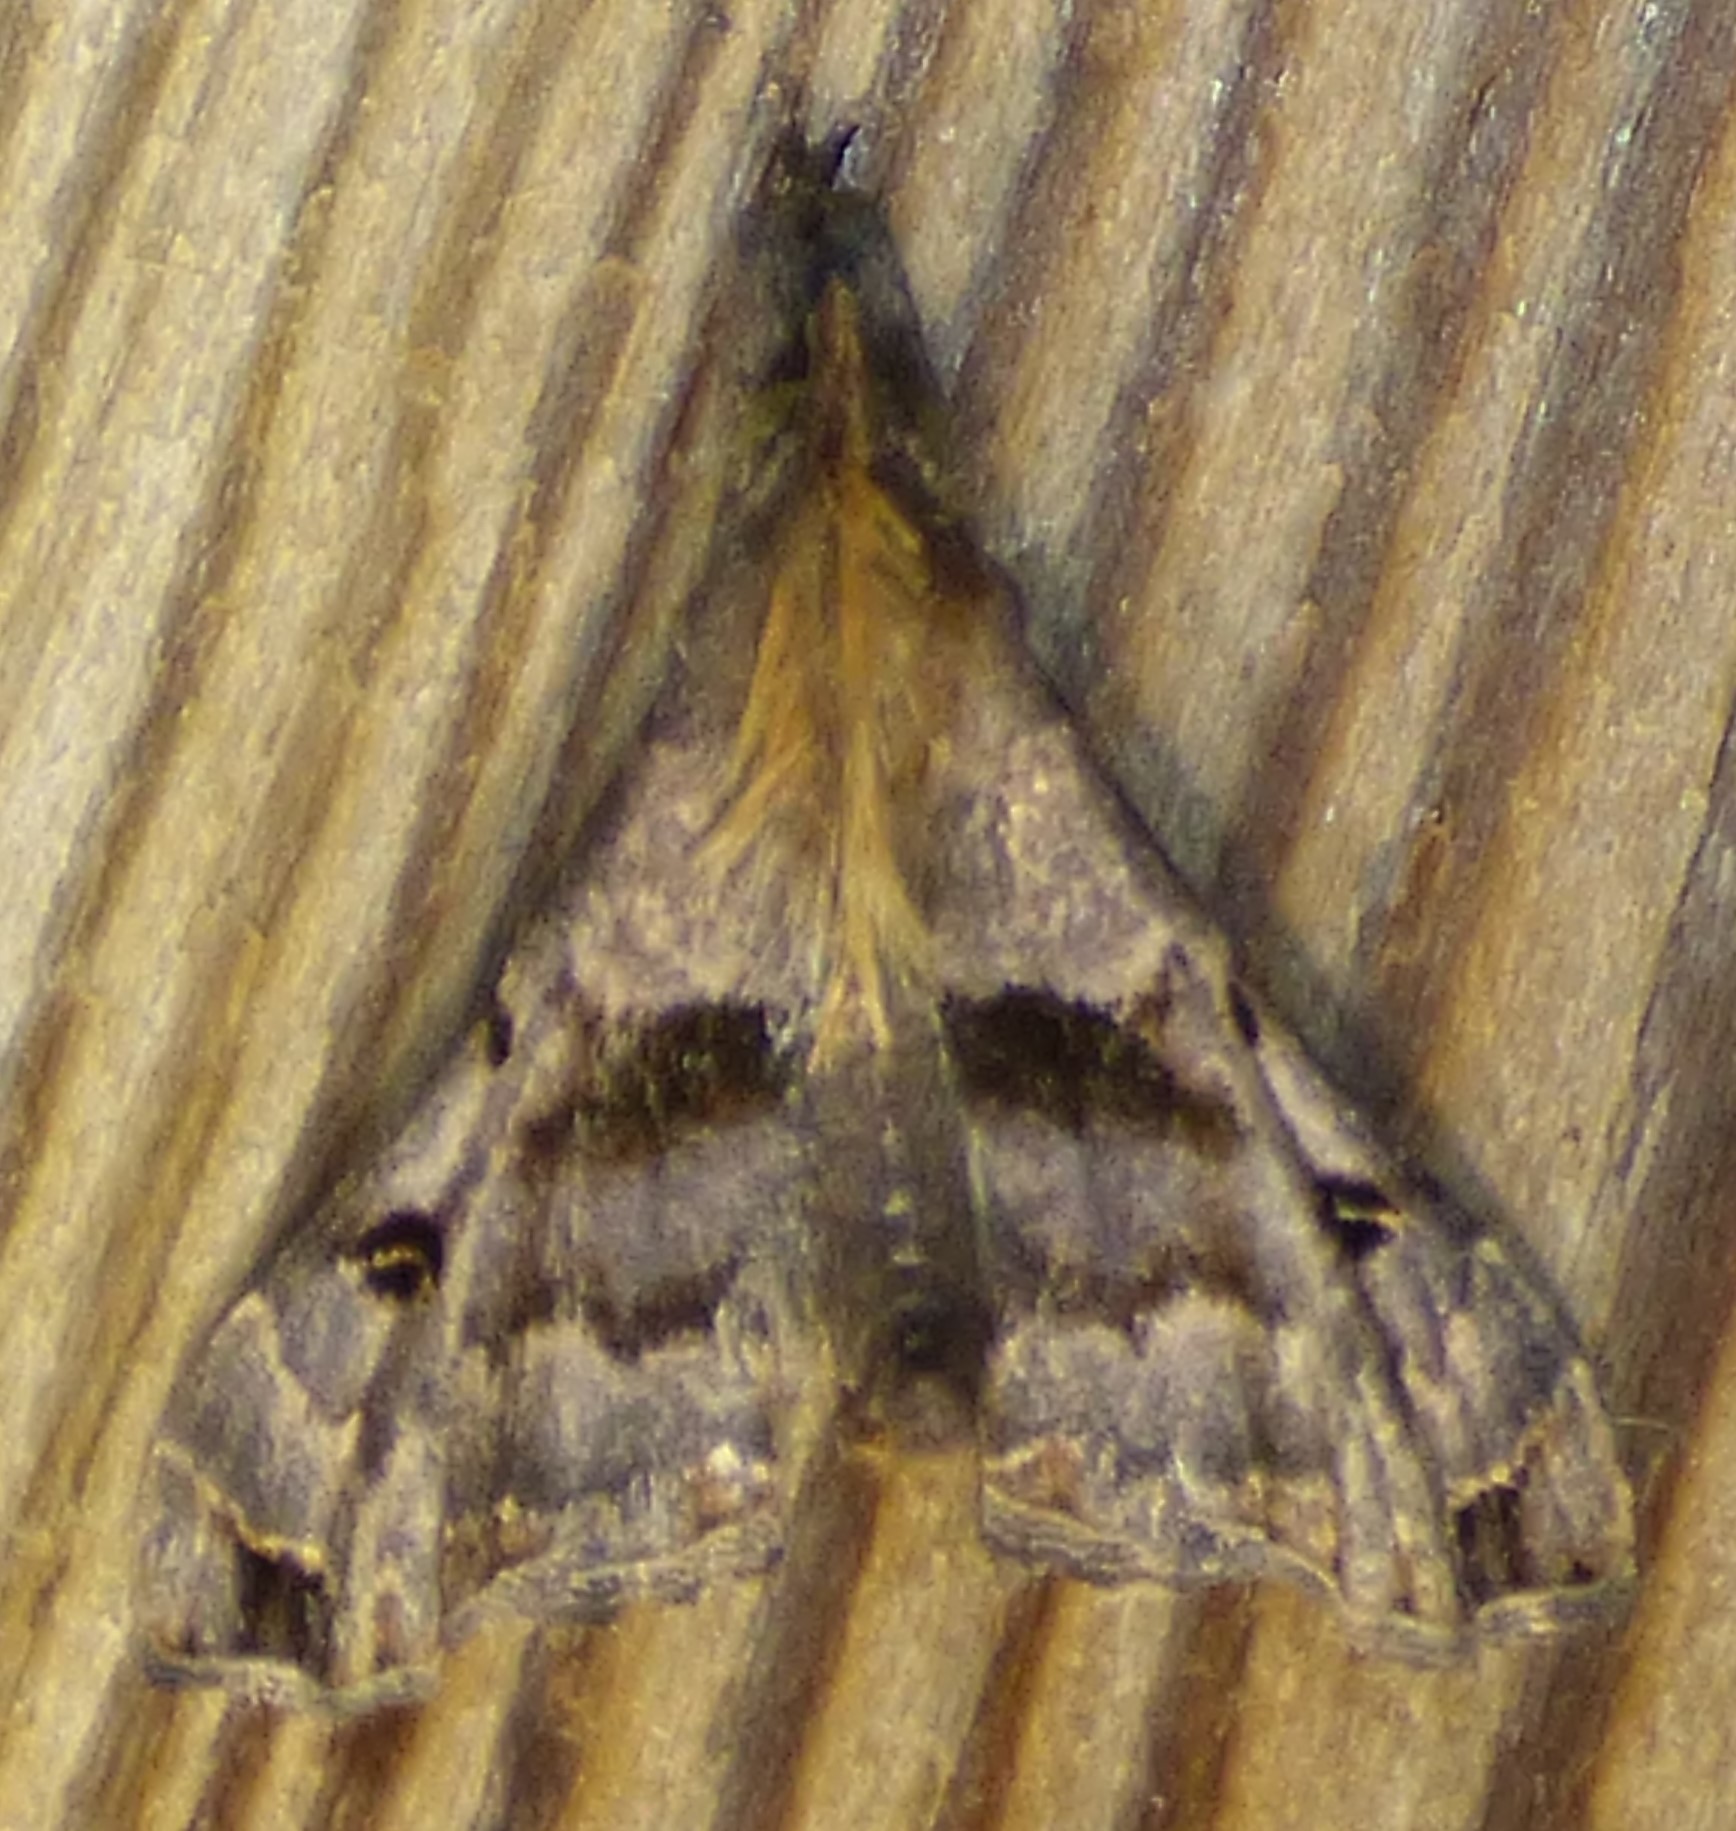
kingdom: Animalia
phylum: Arthropoda
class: Insecta
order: Lepidoptera
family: Erebidae
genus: Palthis
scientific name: Palthis asopialis
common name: Faint-spotted palthis moth
